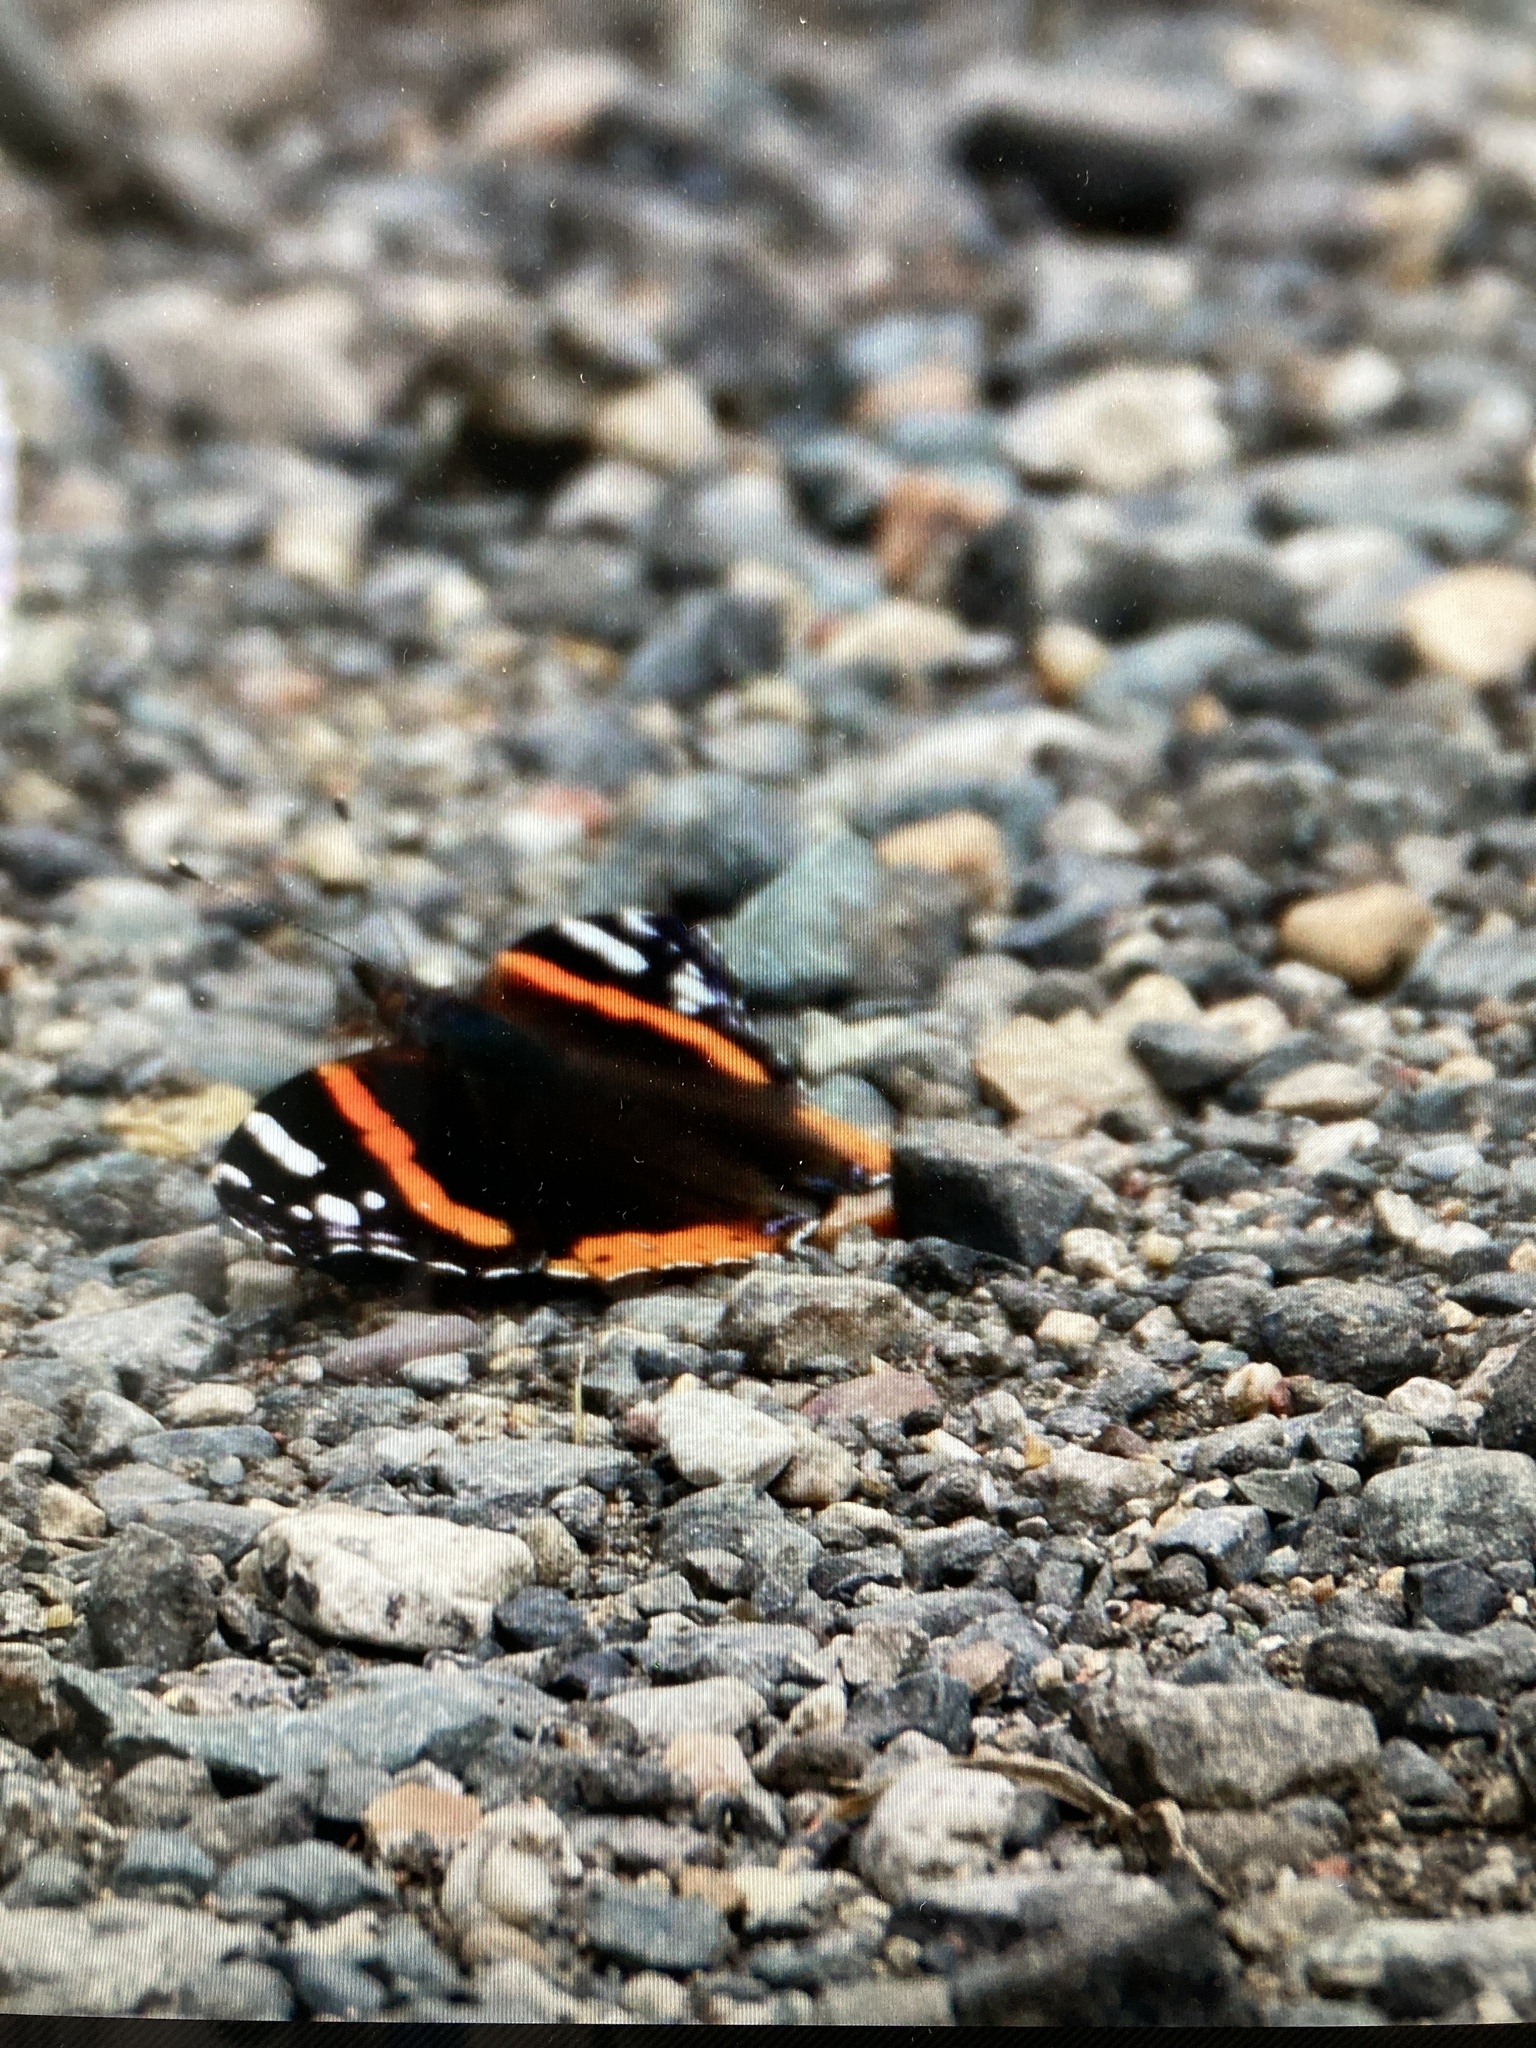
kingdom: Animalia
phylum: Arthropoda
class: Insecta
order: Lepidoptera
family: Nymphalidae
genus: Vanessa
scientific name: Vanessa atalanta
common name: Red admiral
